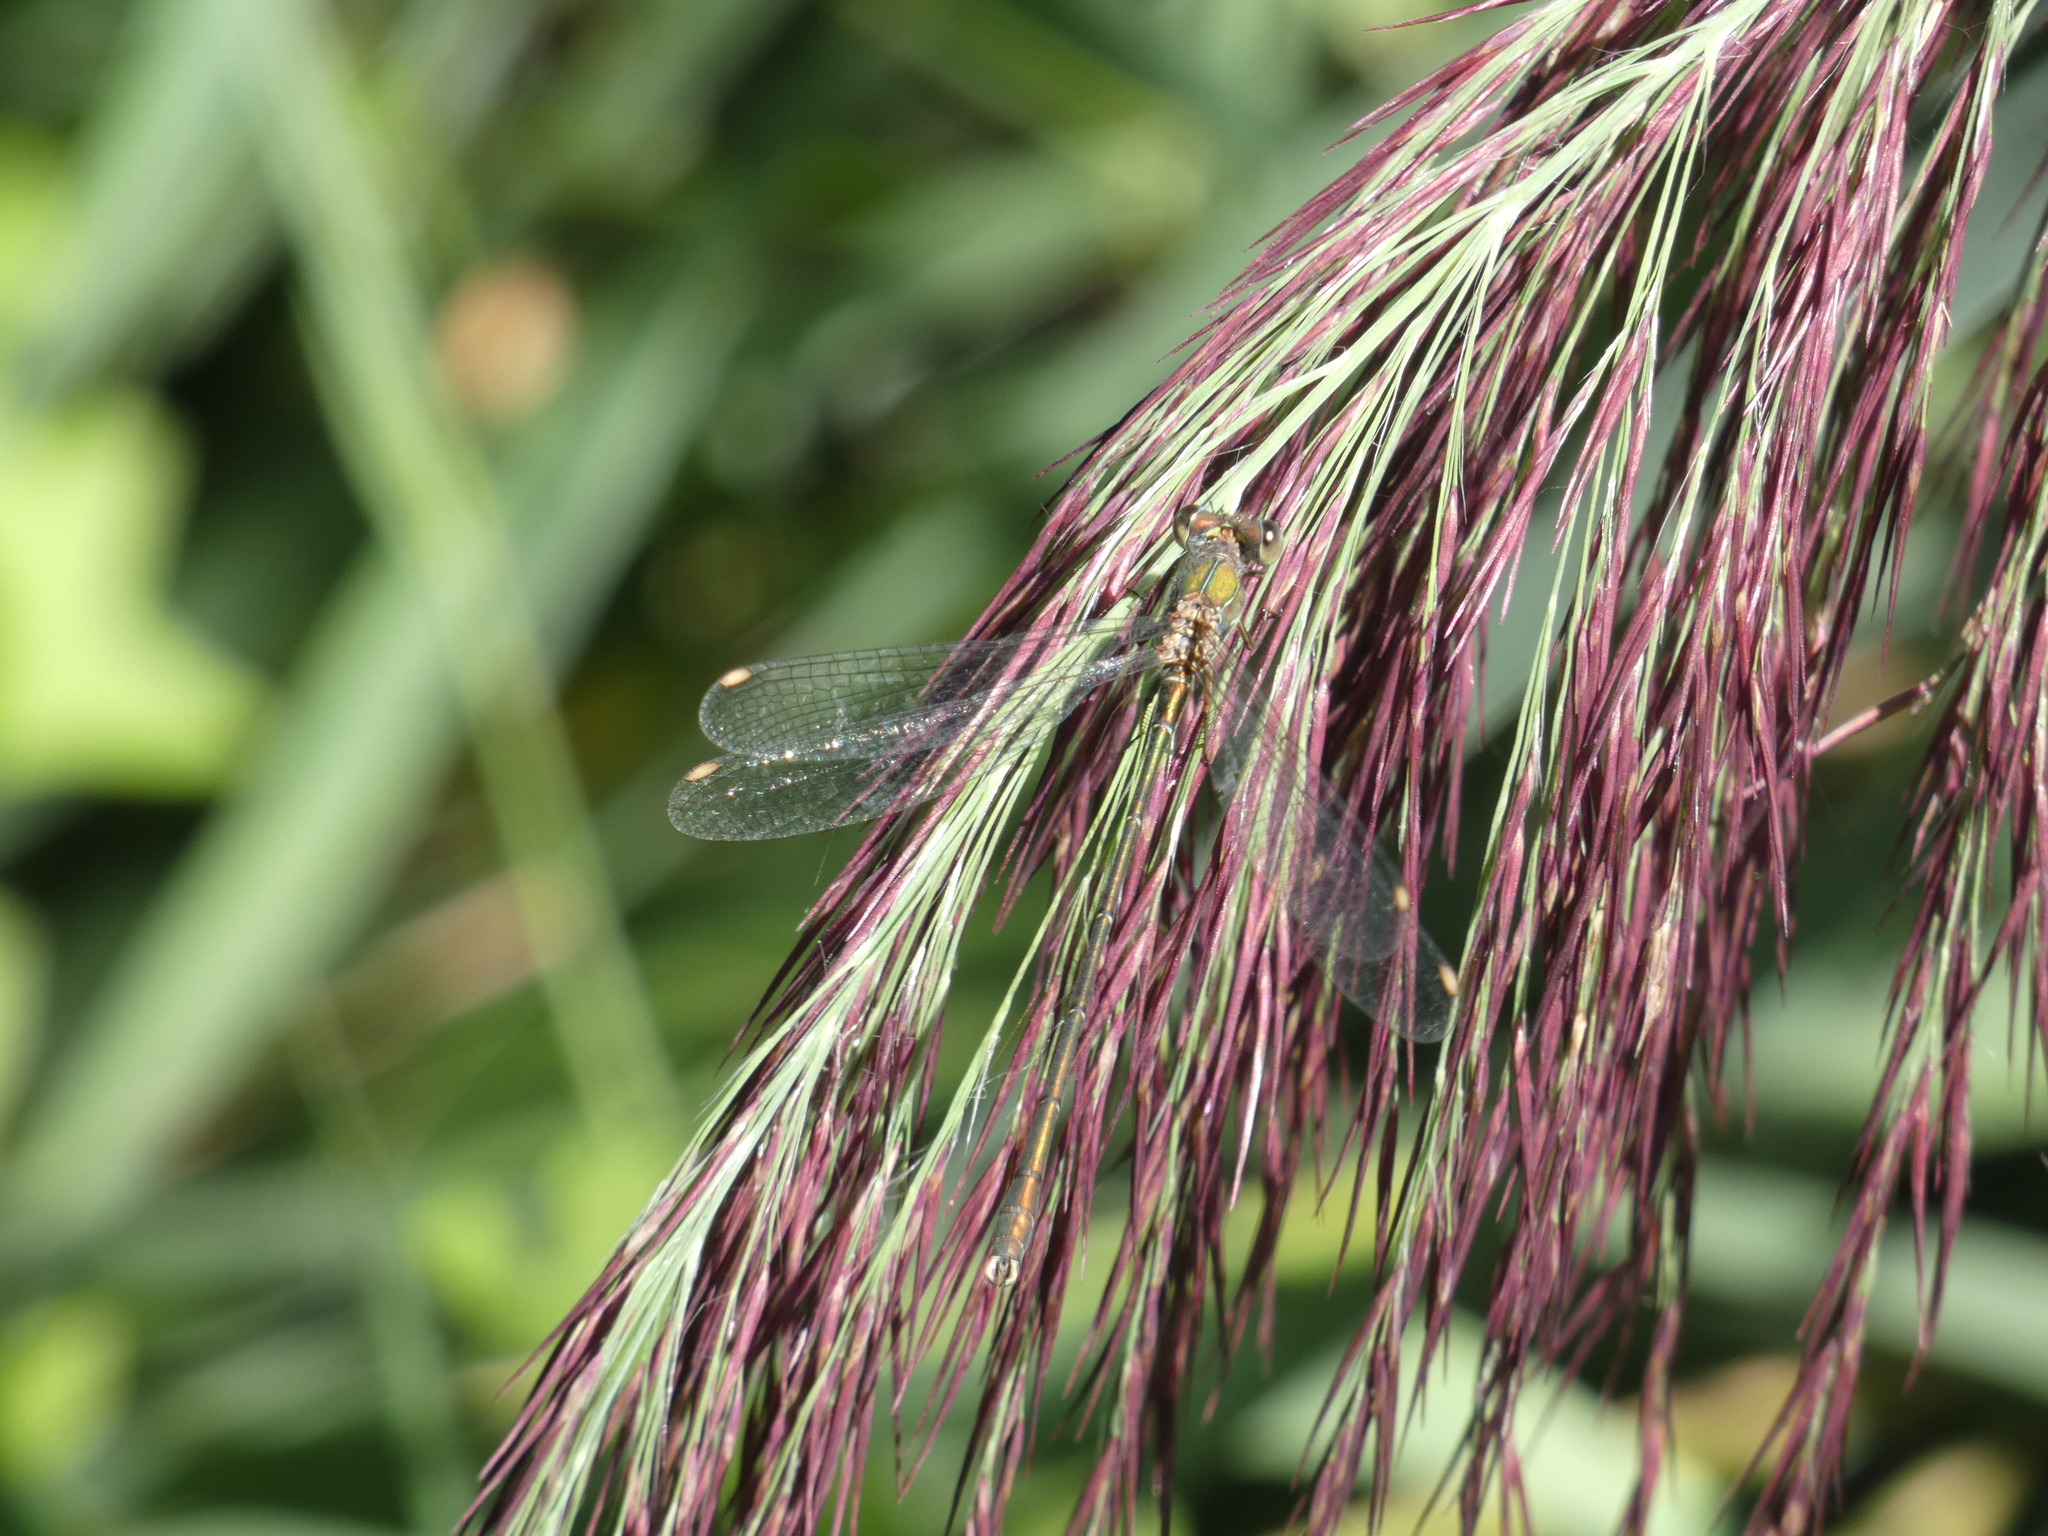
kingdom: Animalia
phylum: Arthropoda
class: Insecta
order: Odonata
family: Lestidae
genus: Chalcolestes
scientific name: Chalcolestes viridis
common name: Green emerald damselfly
